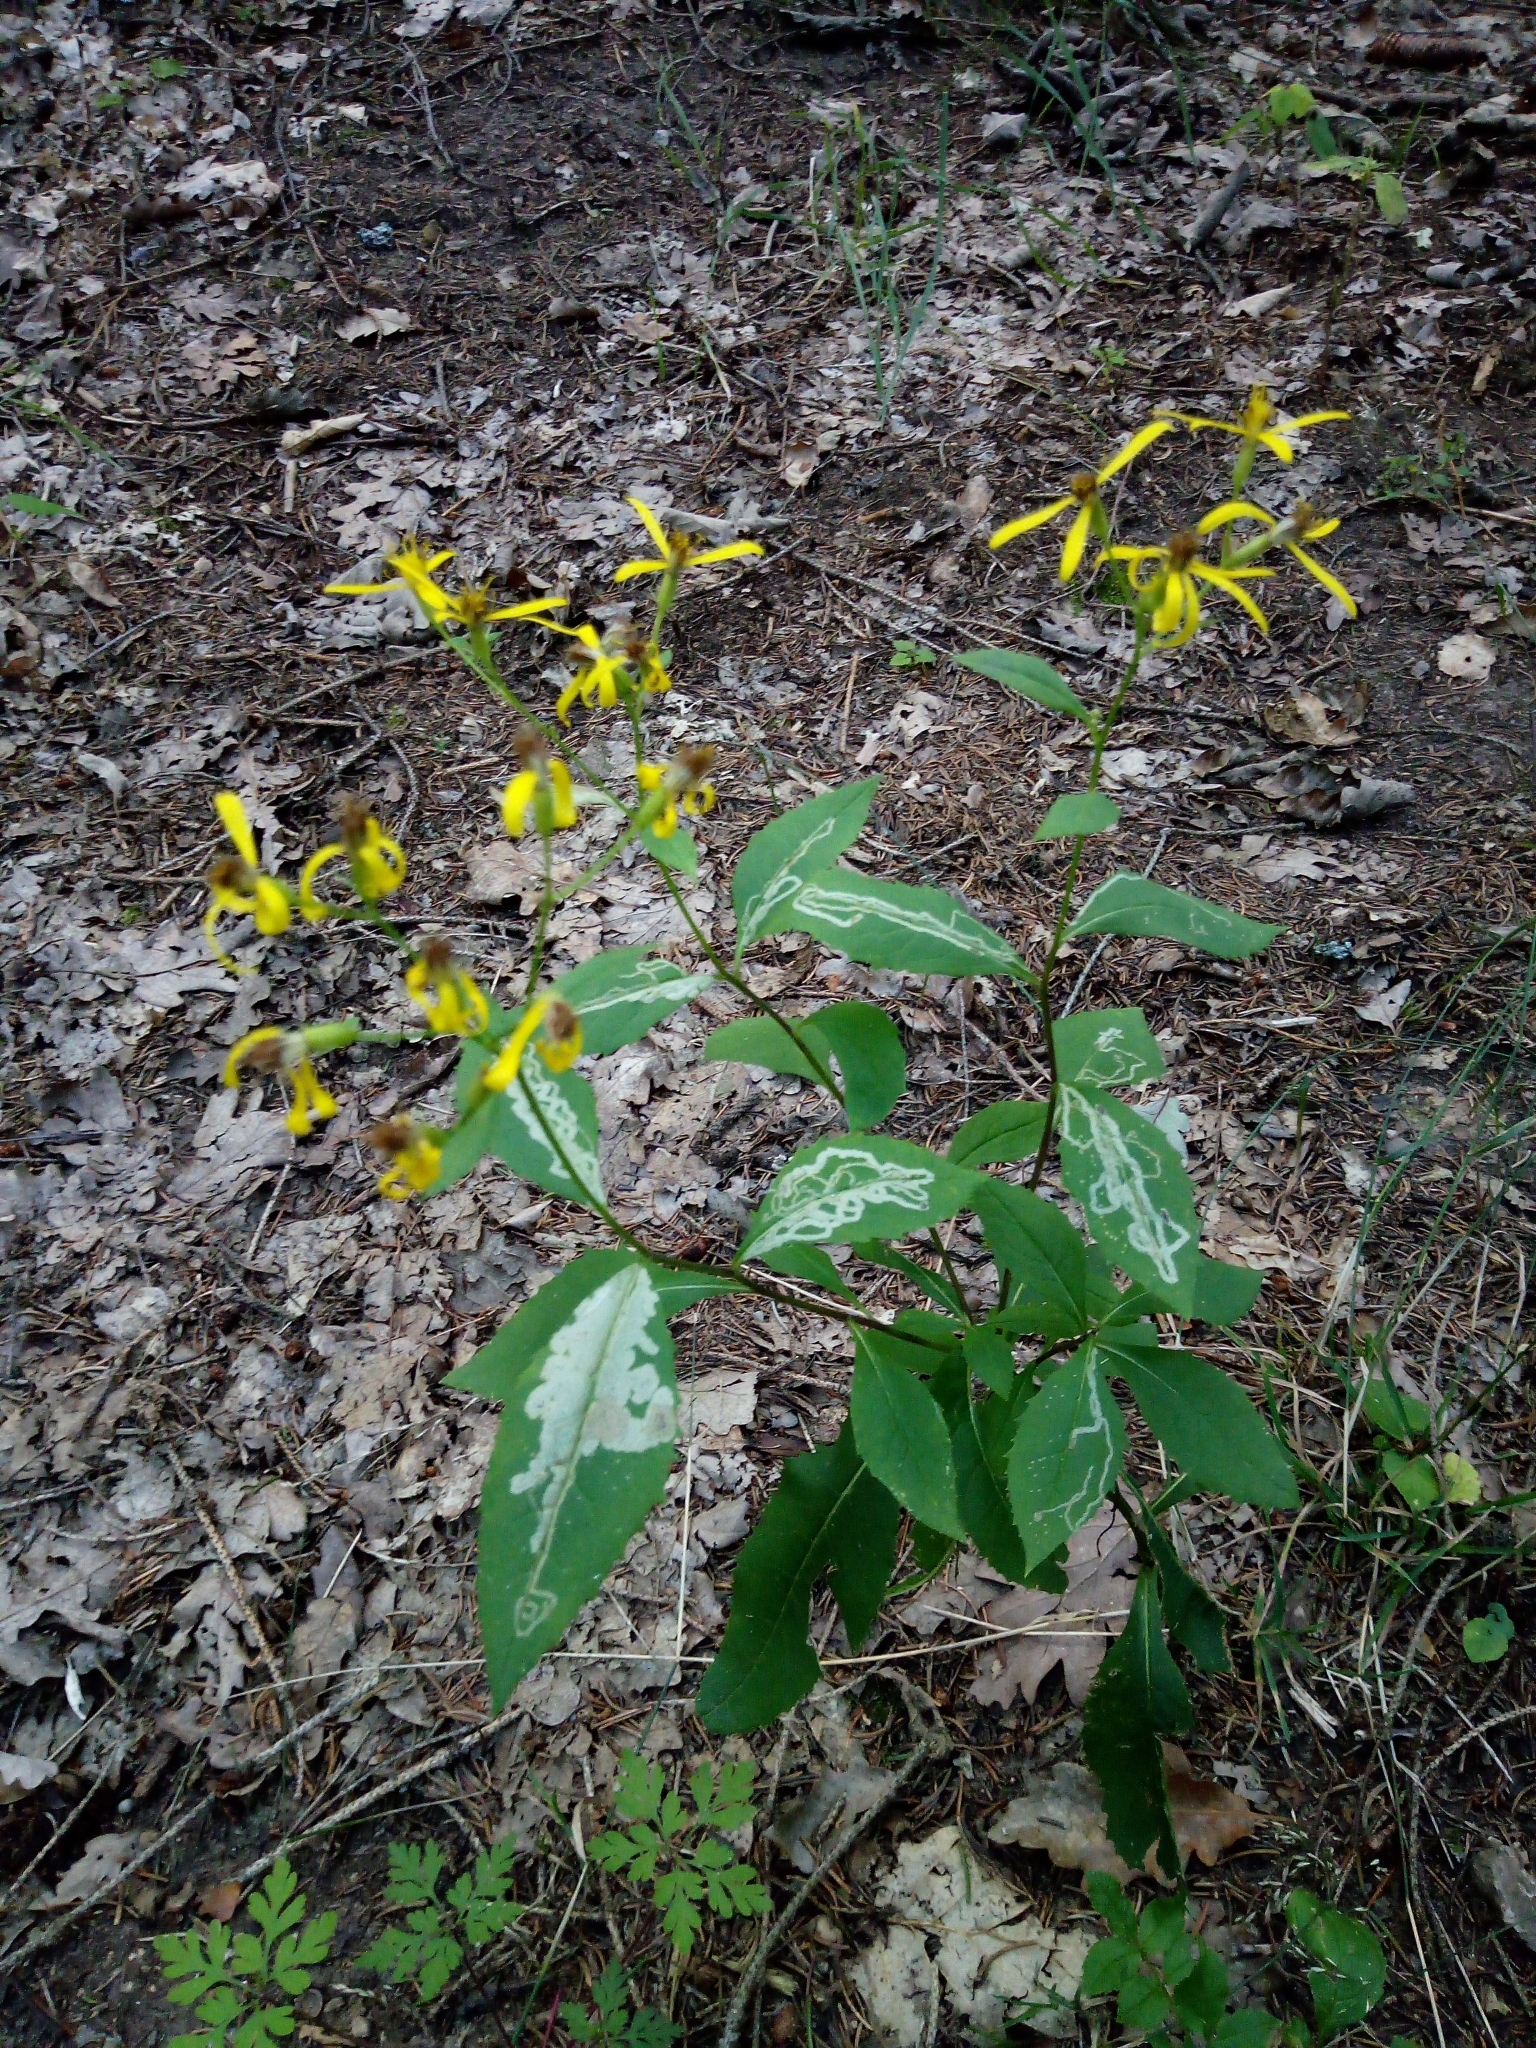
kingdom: Plantae
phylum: Tracheophyta
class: Magnoliopsida
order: Asterales
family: Asteraceae
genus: Senecio
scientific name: Senecio ovatus
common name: Wood ragwort
